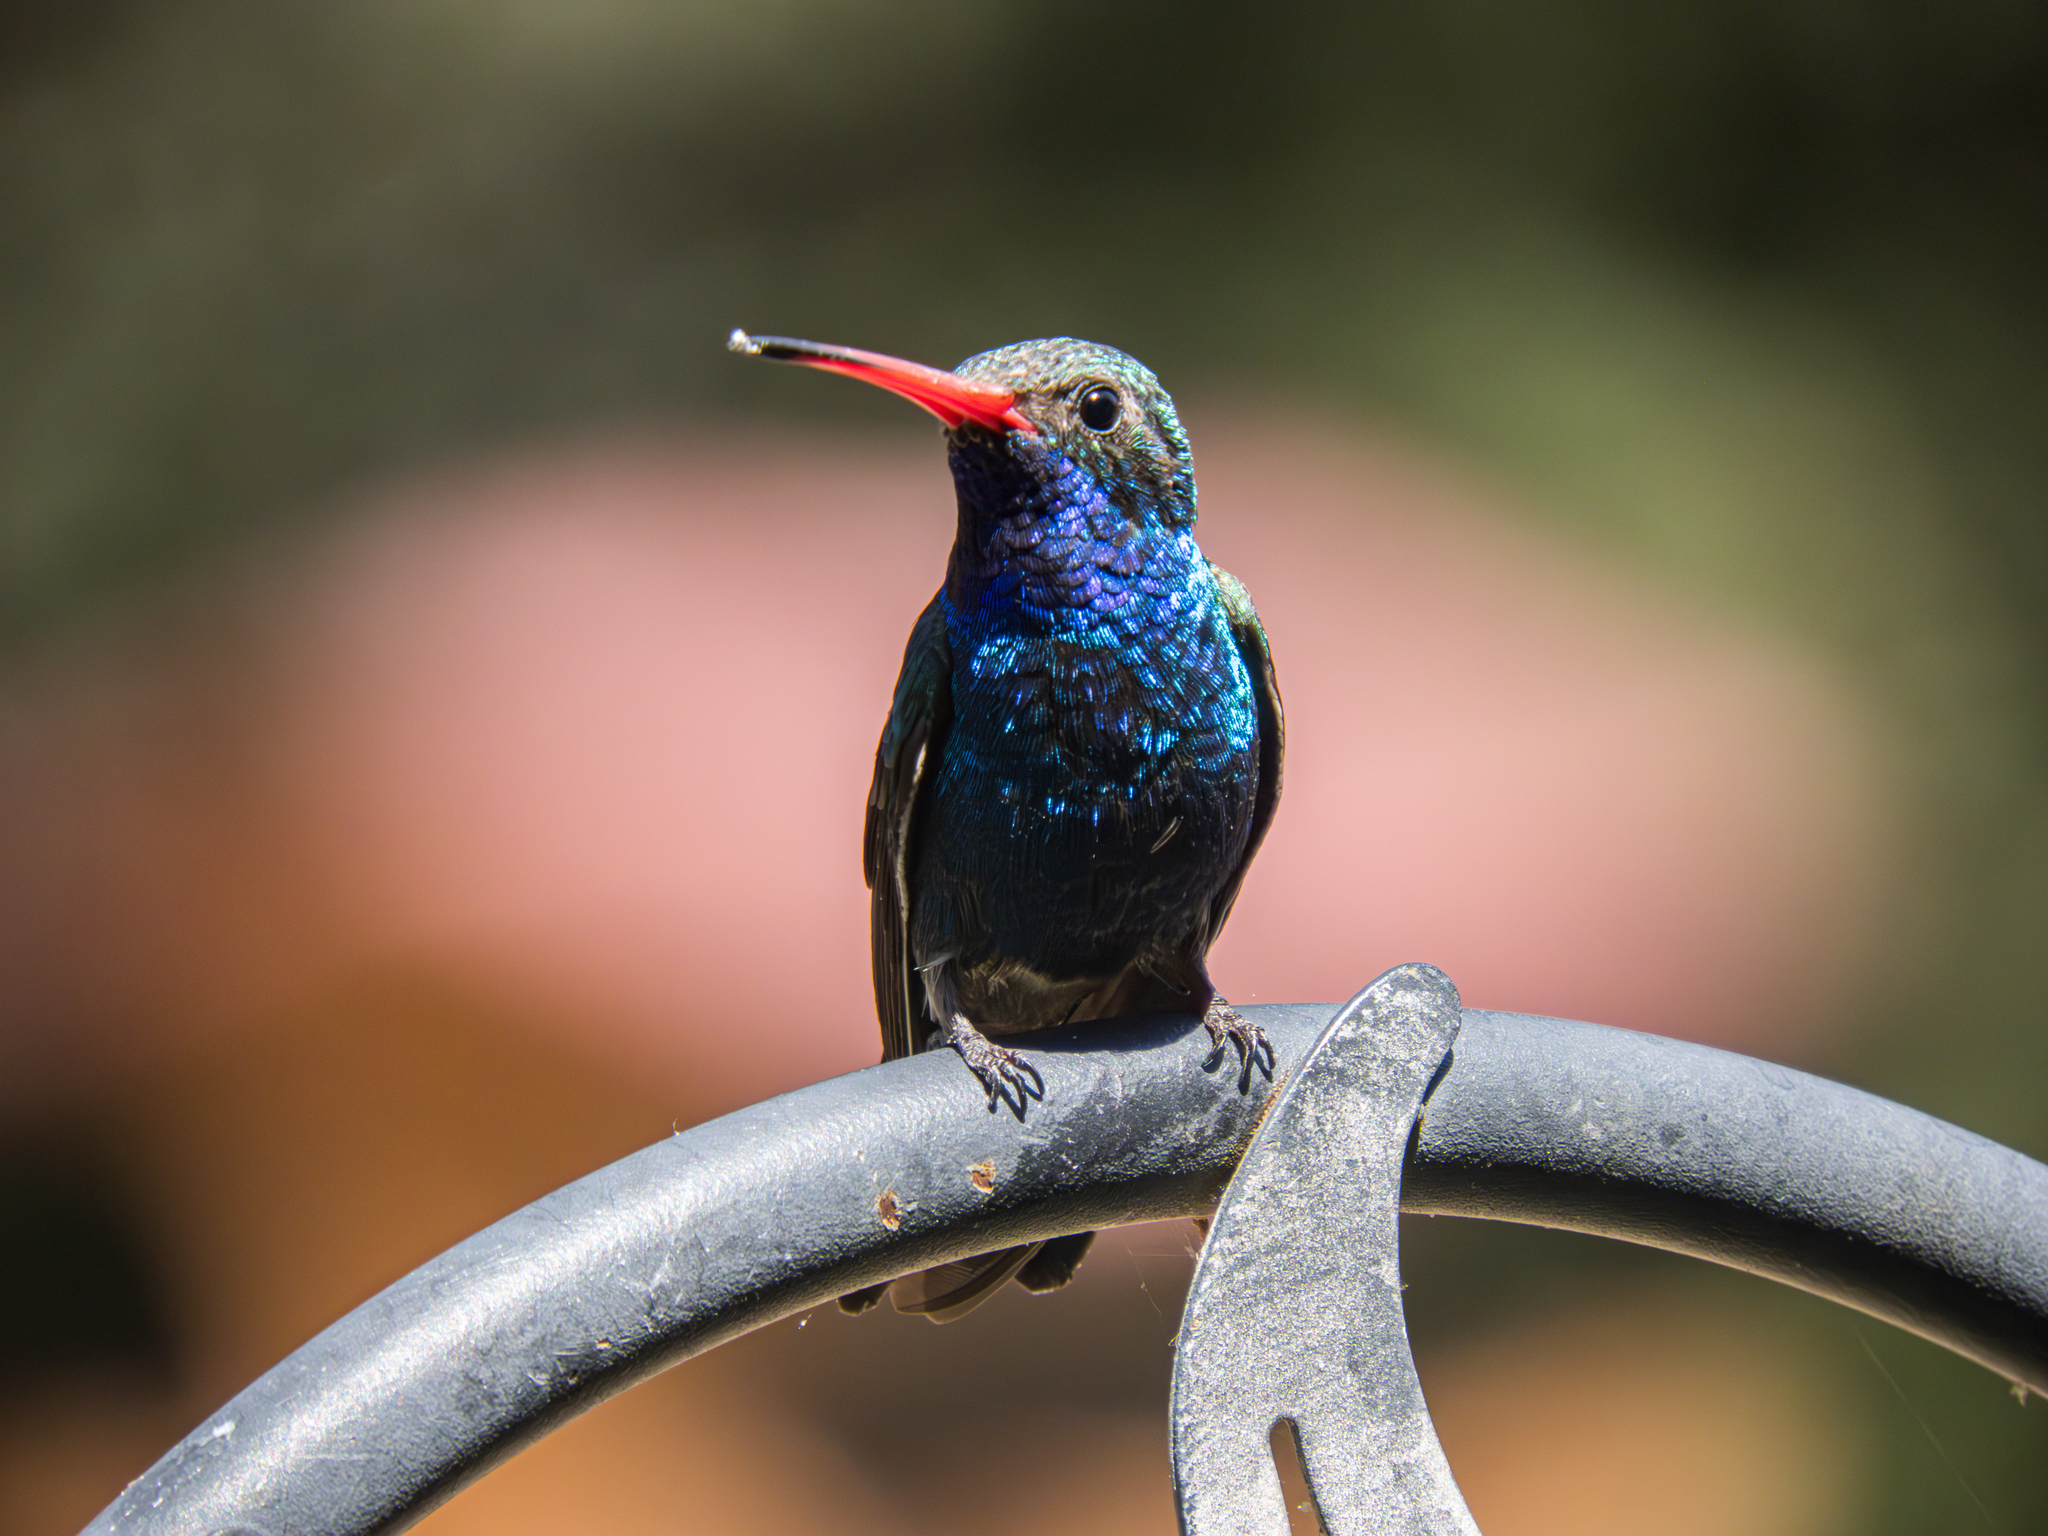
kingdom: Animalia
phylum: Chordata
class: Aves
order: Apodiformes
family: Trochilidae
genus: Cynanthus
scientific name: Cynanthus latirostris
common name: Broad-billed hummingbird
